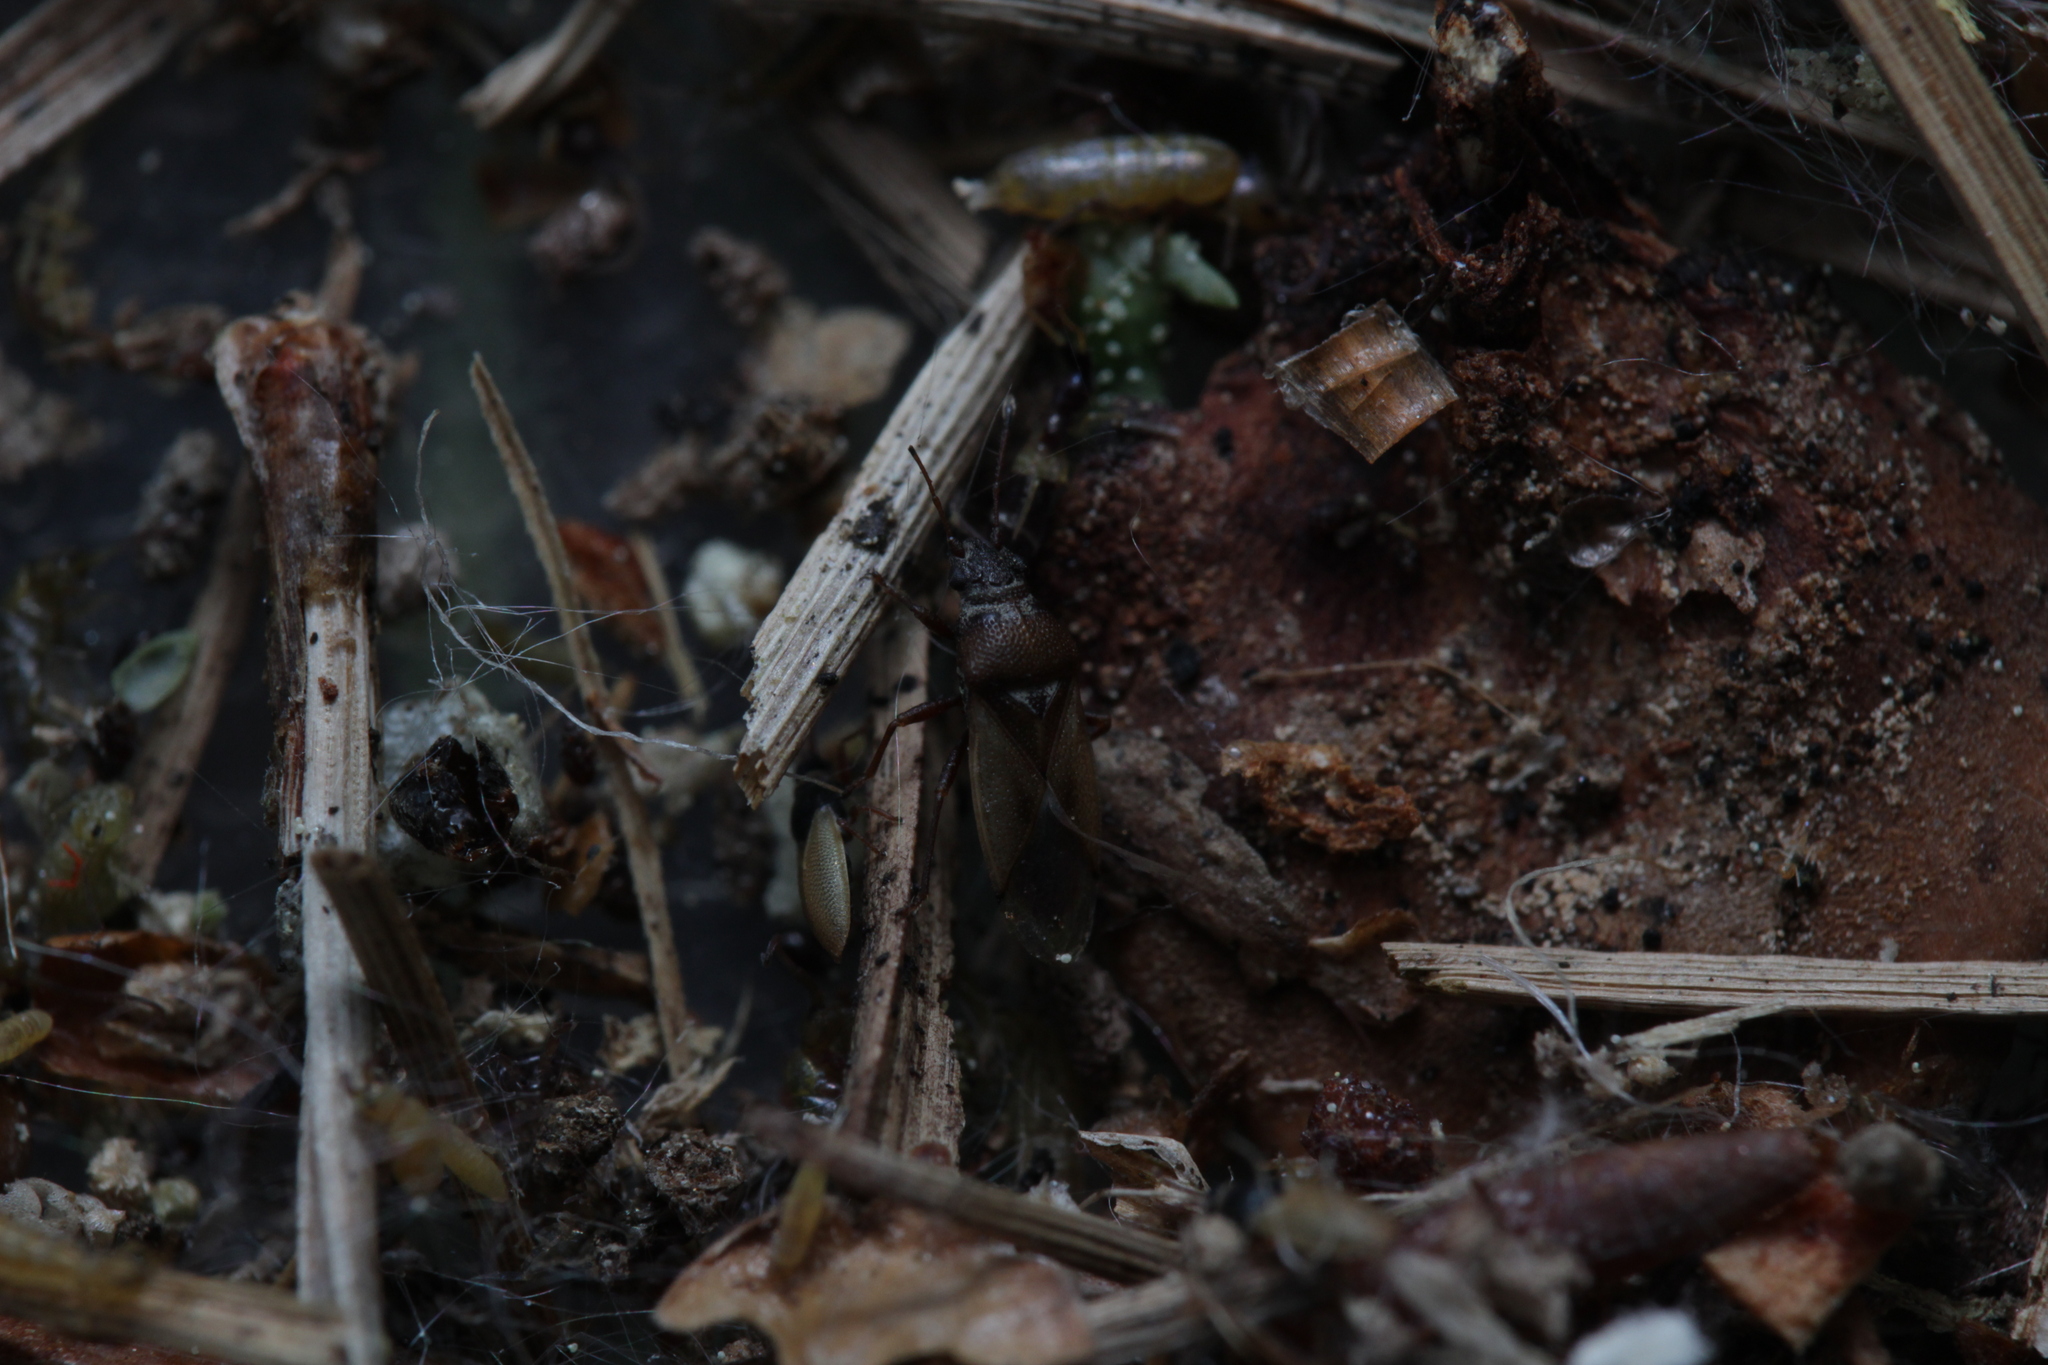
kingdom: Animalia
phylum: Arthropoda
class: Insecta
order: Hemiptera
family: Cymidae
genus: Cymus
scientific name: Cymus melanocephalus
